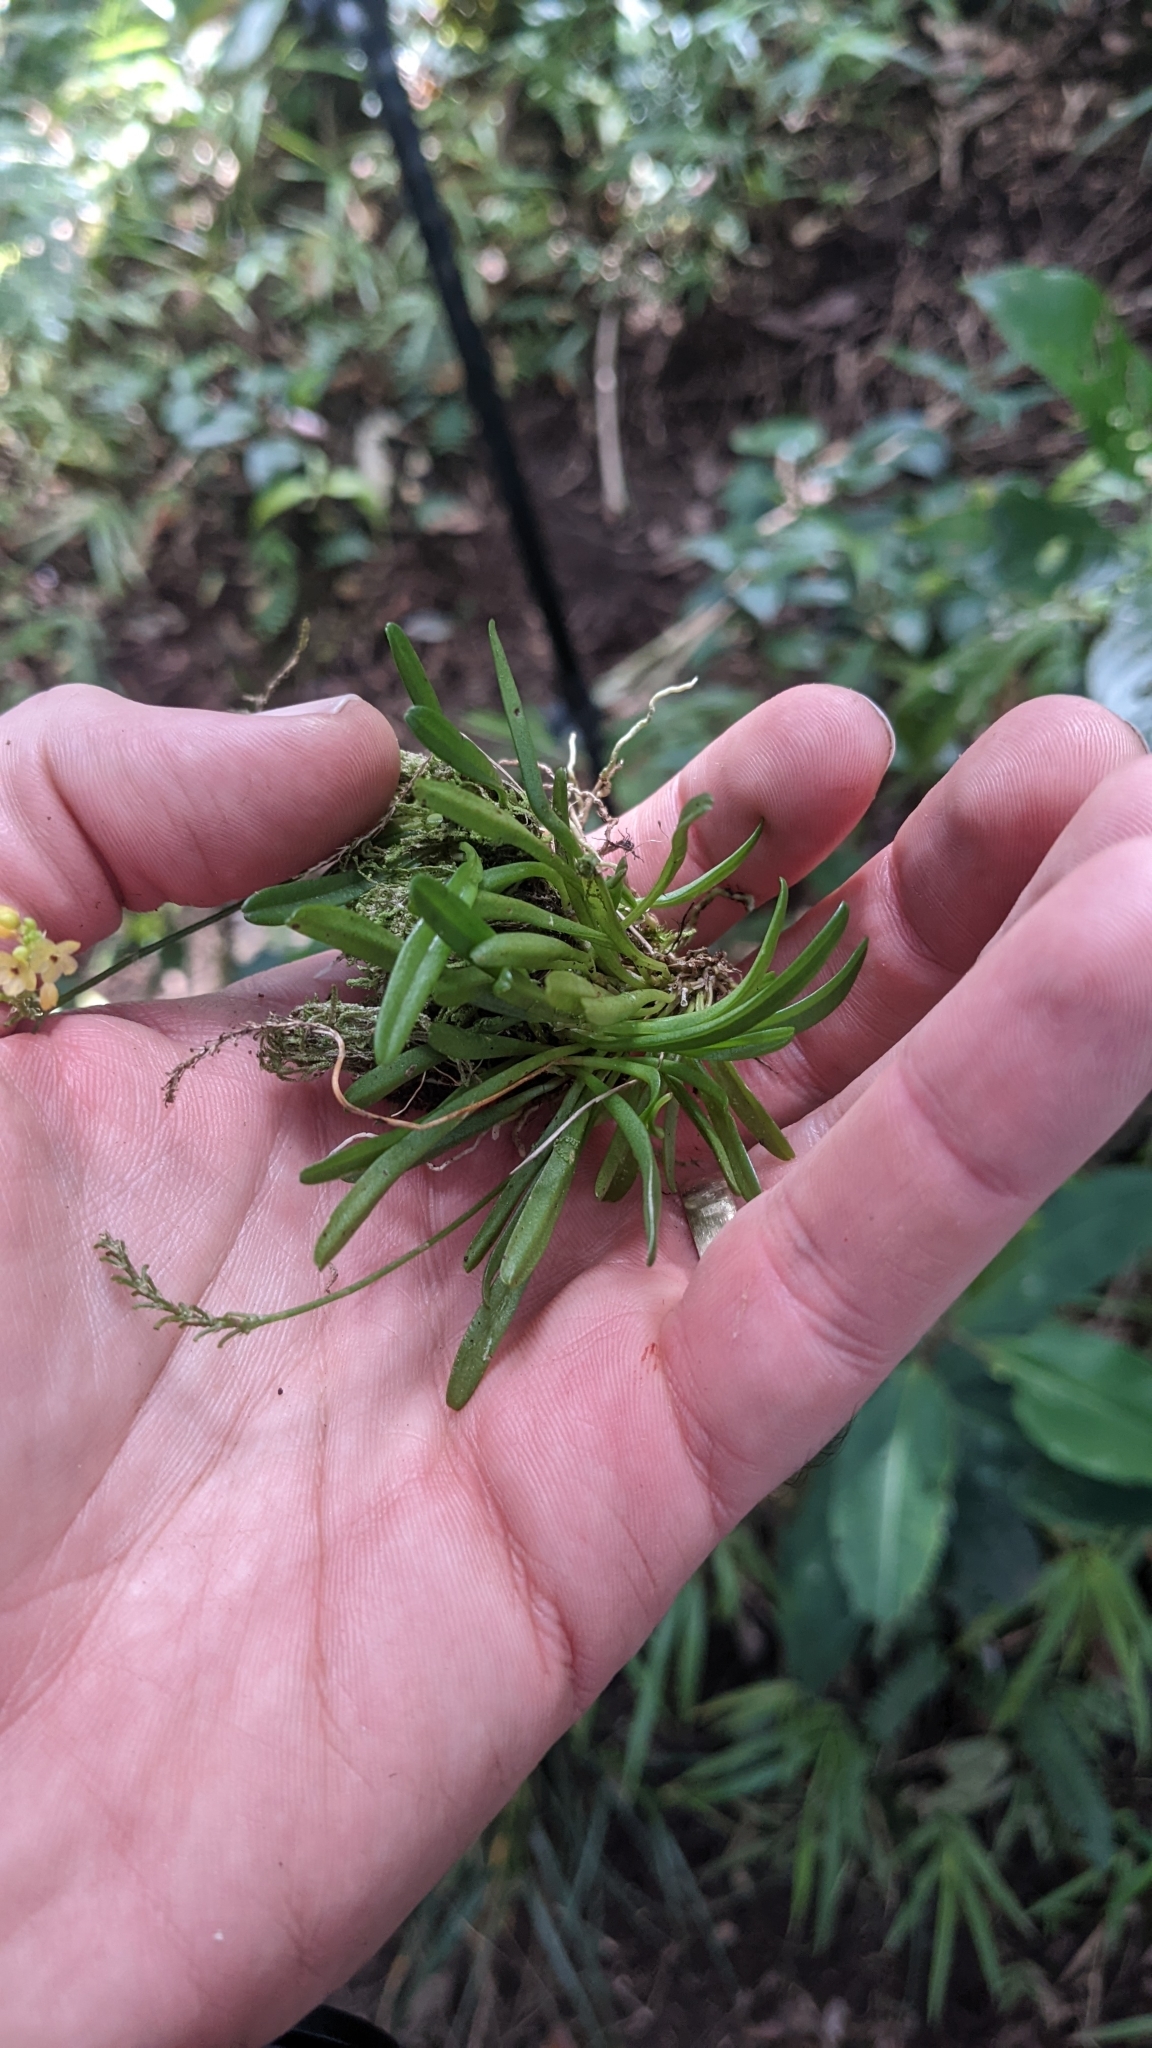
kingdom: Plantae
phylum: Tracheophyta
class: Liliopsida
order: Asparagales
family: Orchidaceae
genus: Platystele
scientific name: Platystele compacta
